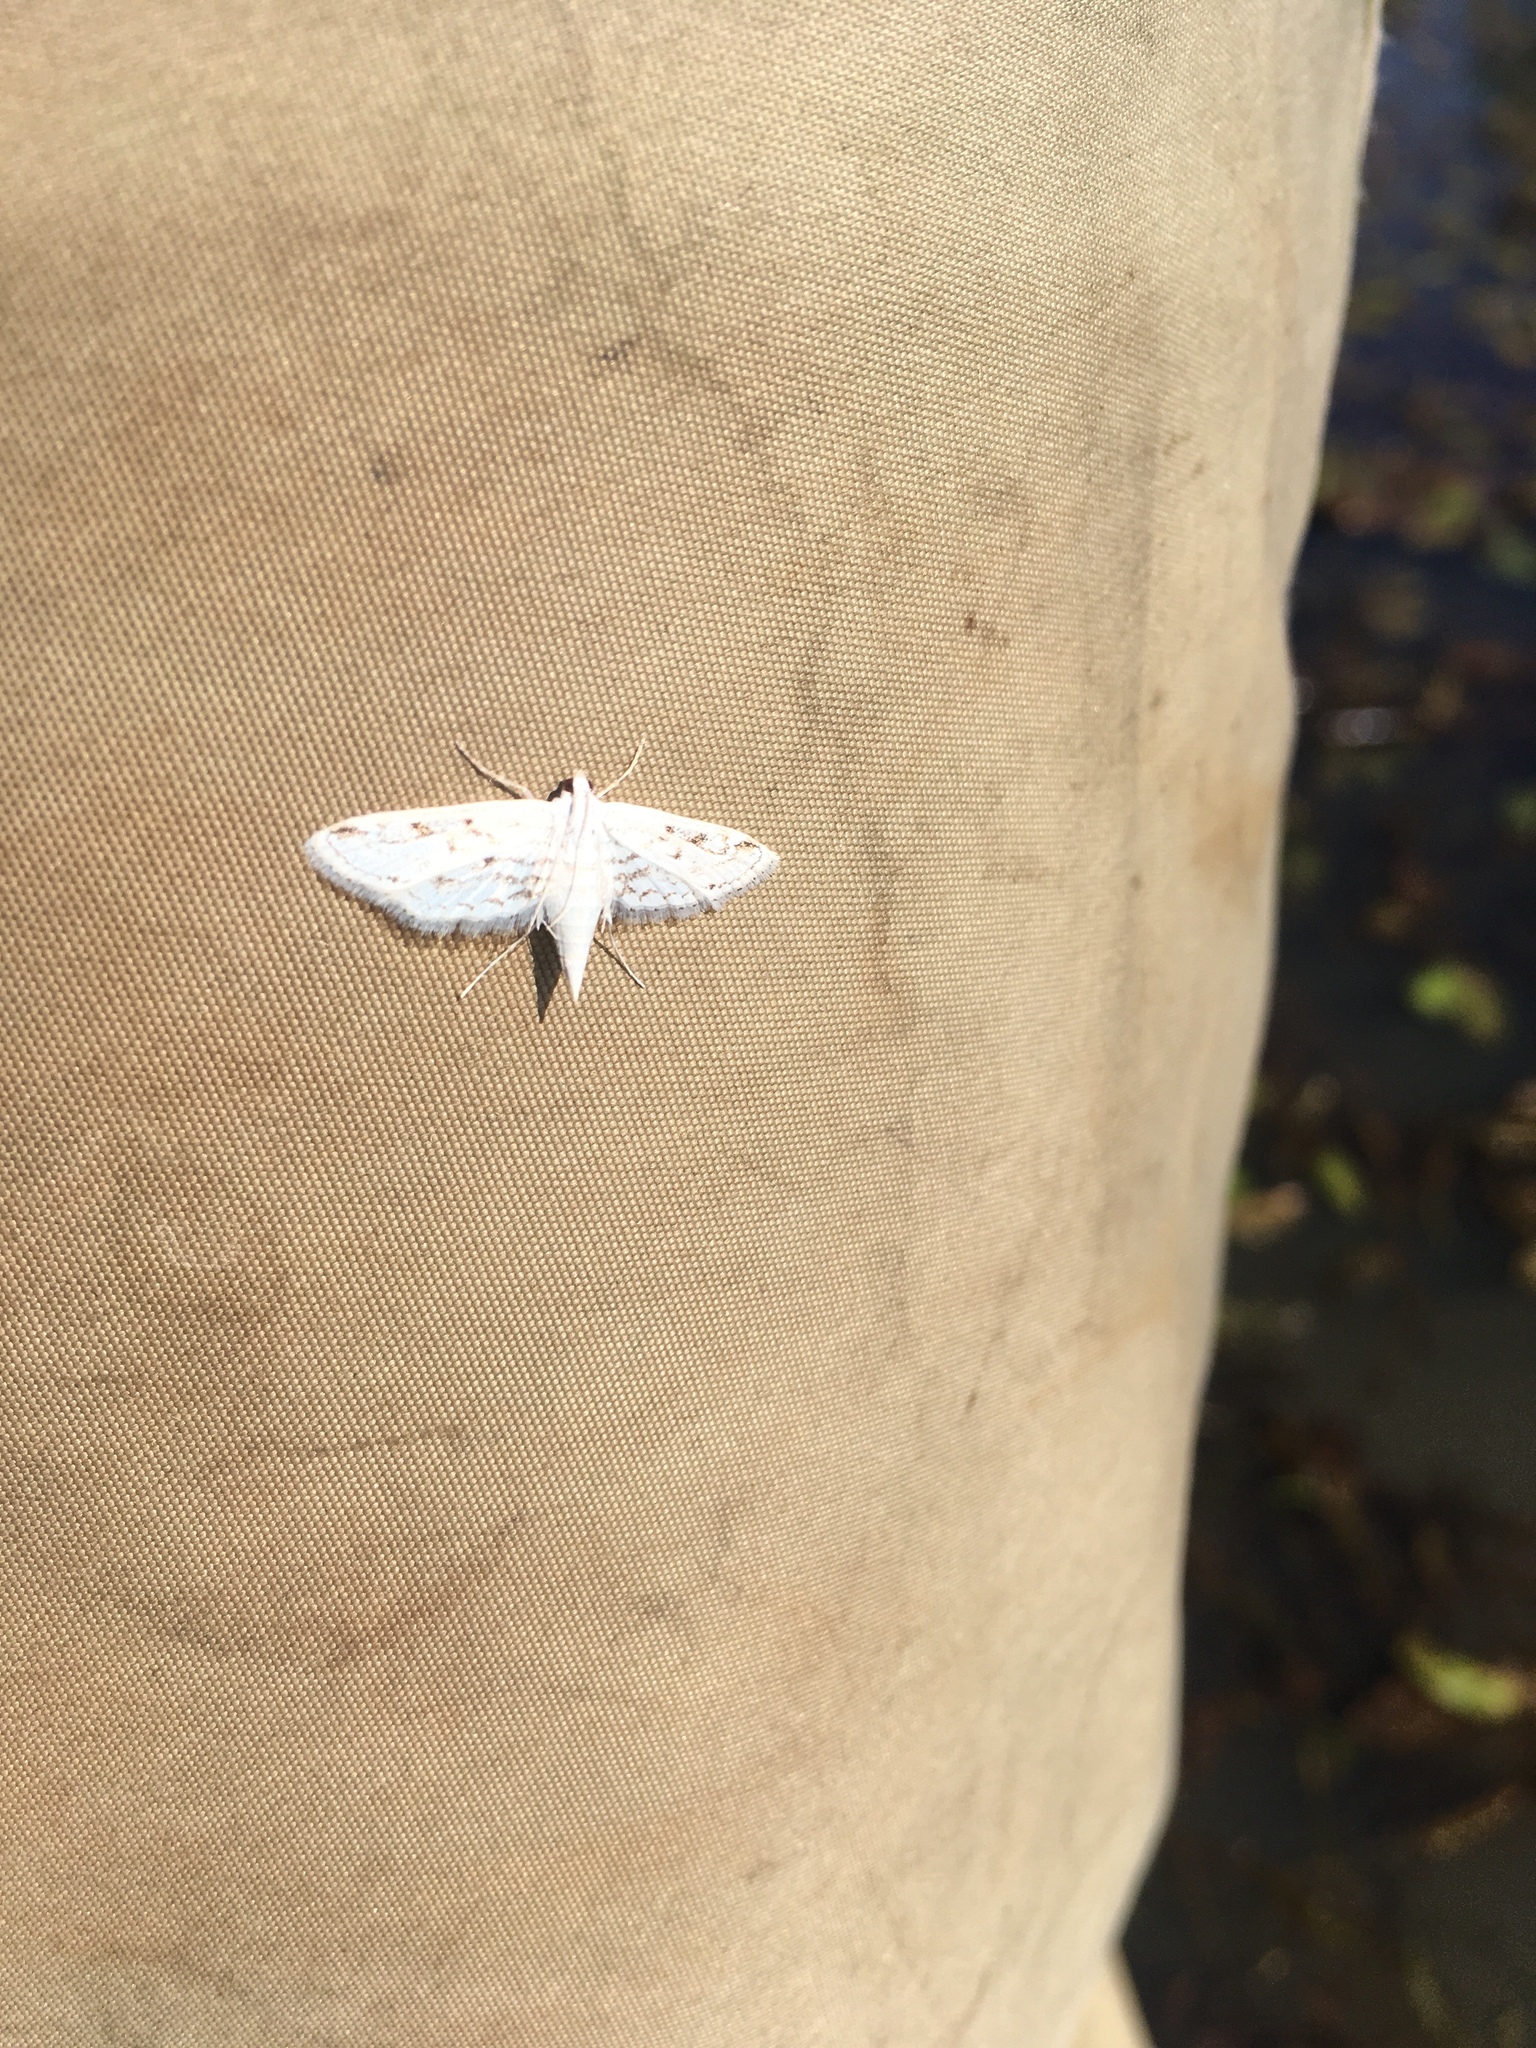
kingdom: Animalia
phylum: Arthropoda
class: Insecta
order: Lepidoptera
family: Crambidae
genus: Parapoynx
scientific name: Parapoynx allionealis
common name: Bladderwort casemaker
